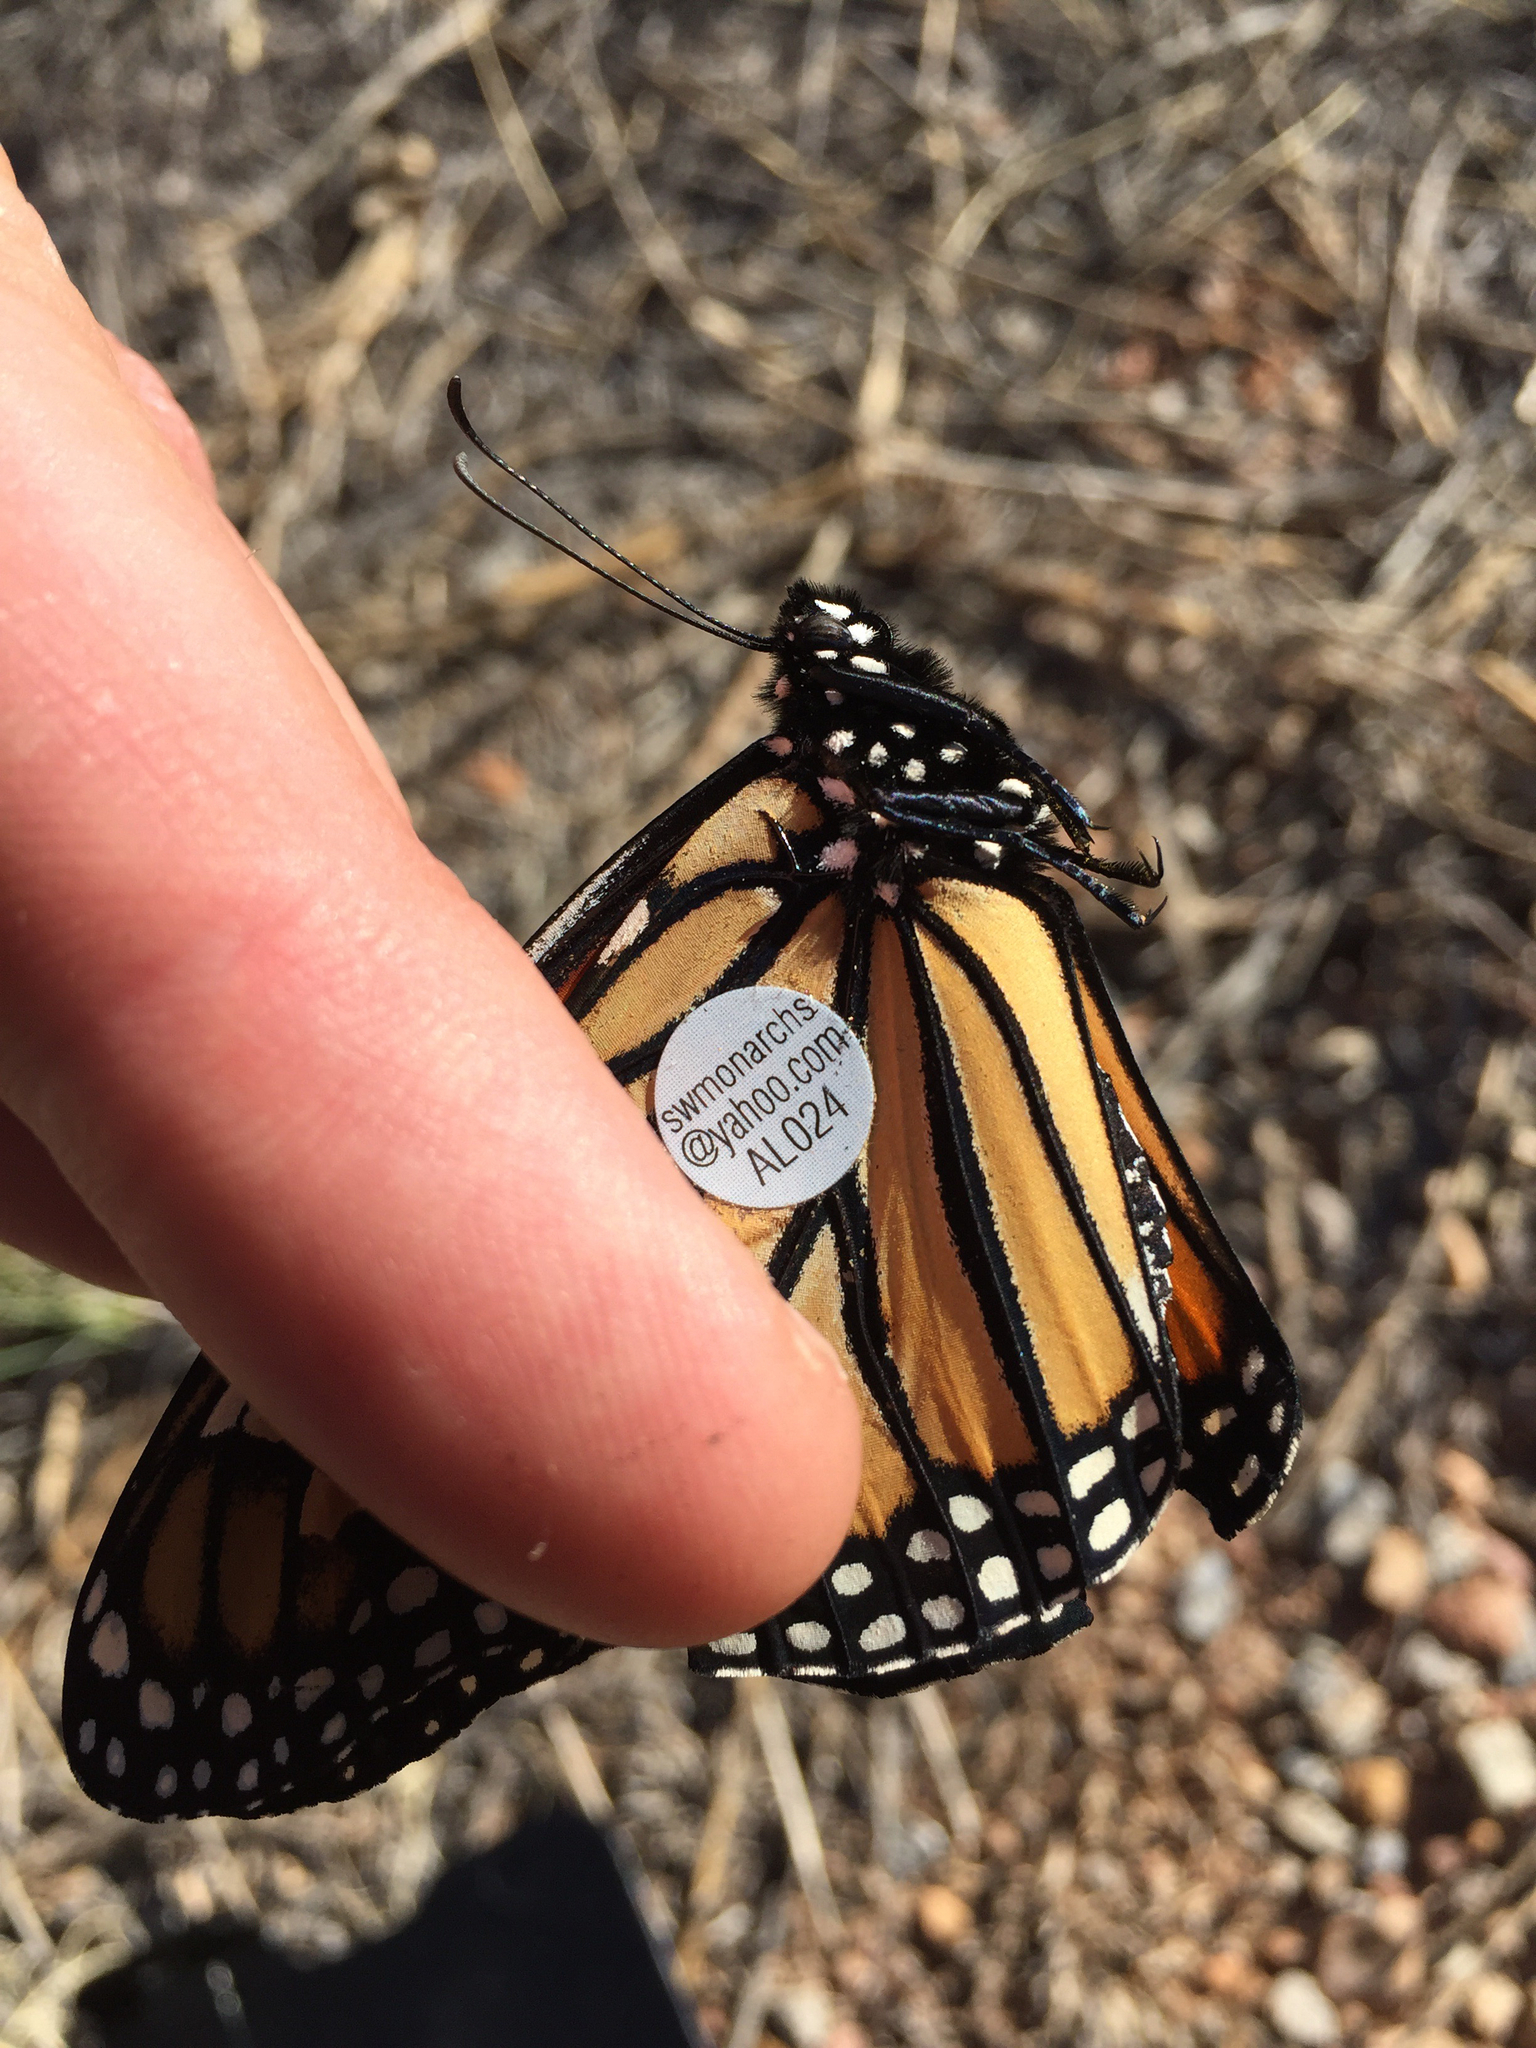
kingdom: Animalia
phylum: Arthropoda
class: Insecta
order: Lepidoptera
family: Nymphalidae
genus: Danaus
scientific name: Danaus plexippus
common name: Monarch
